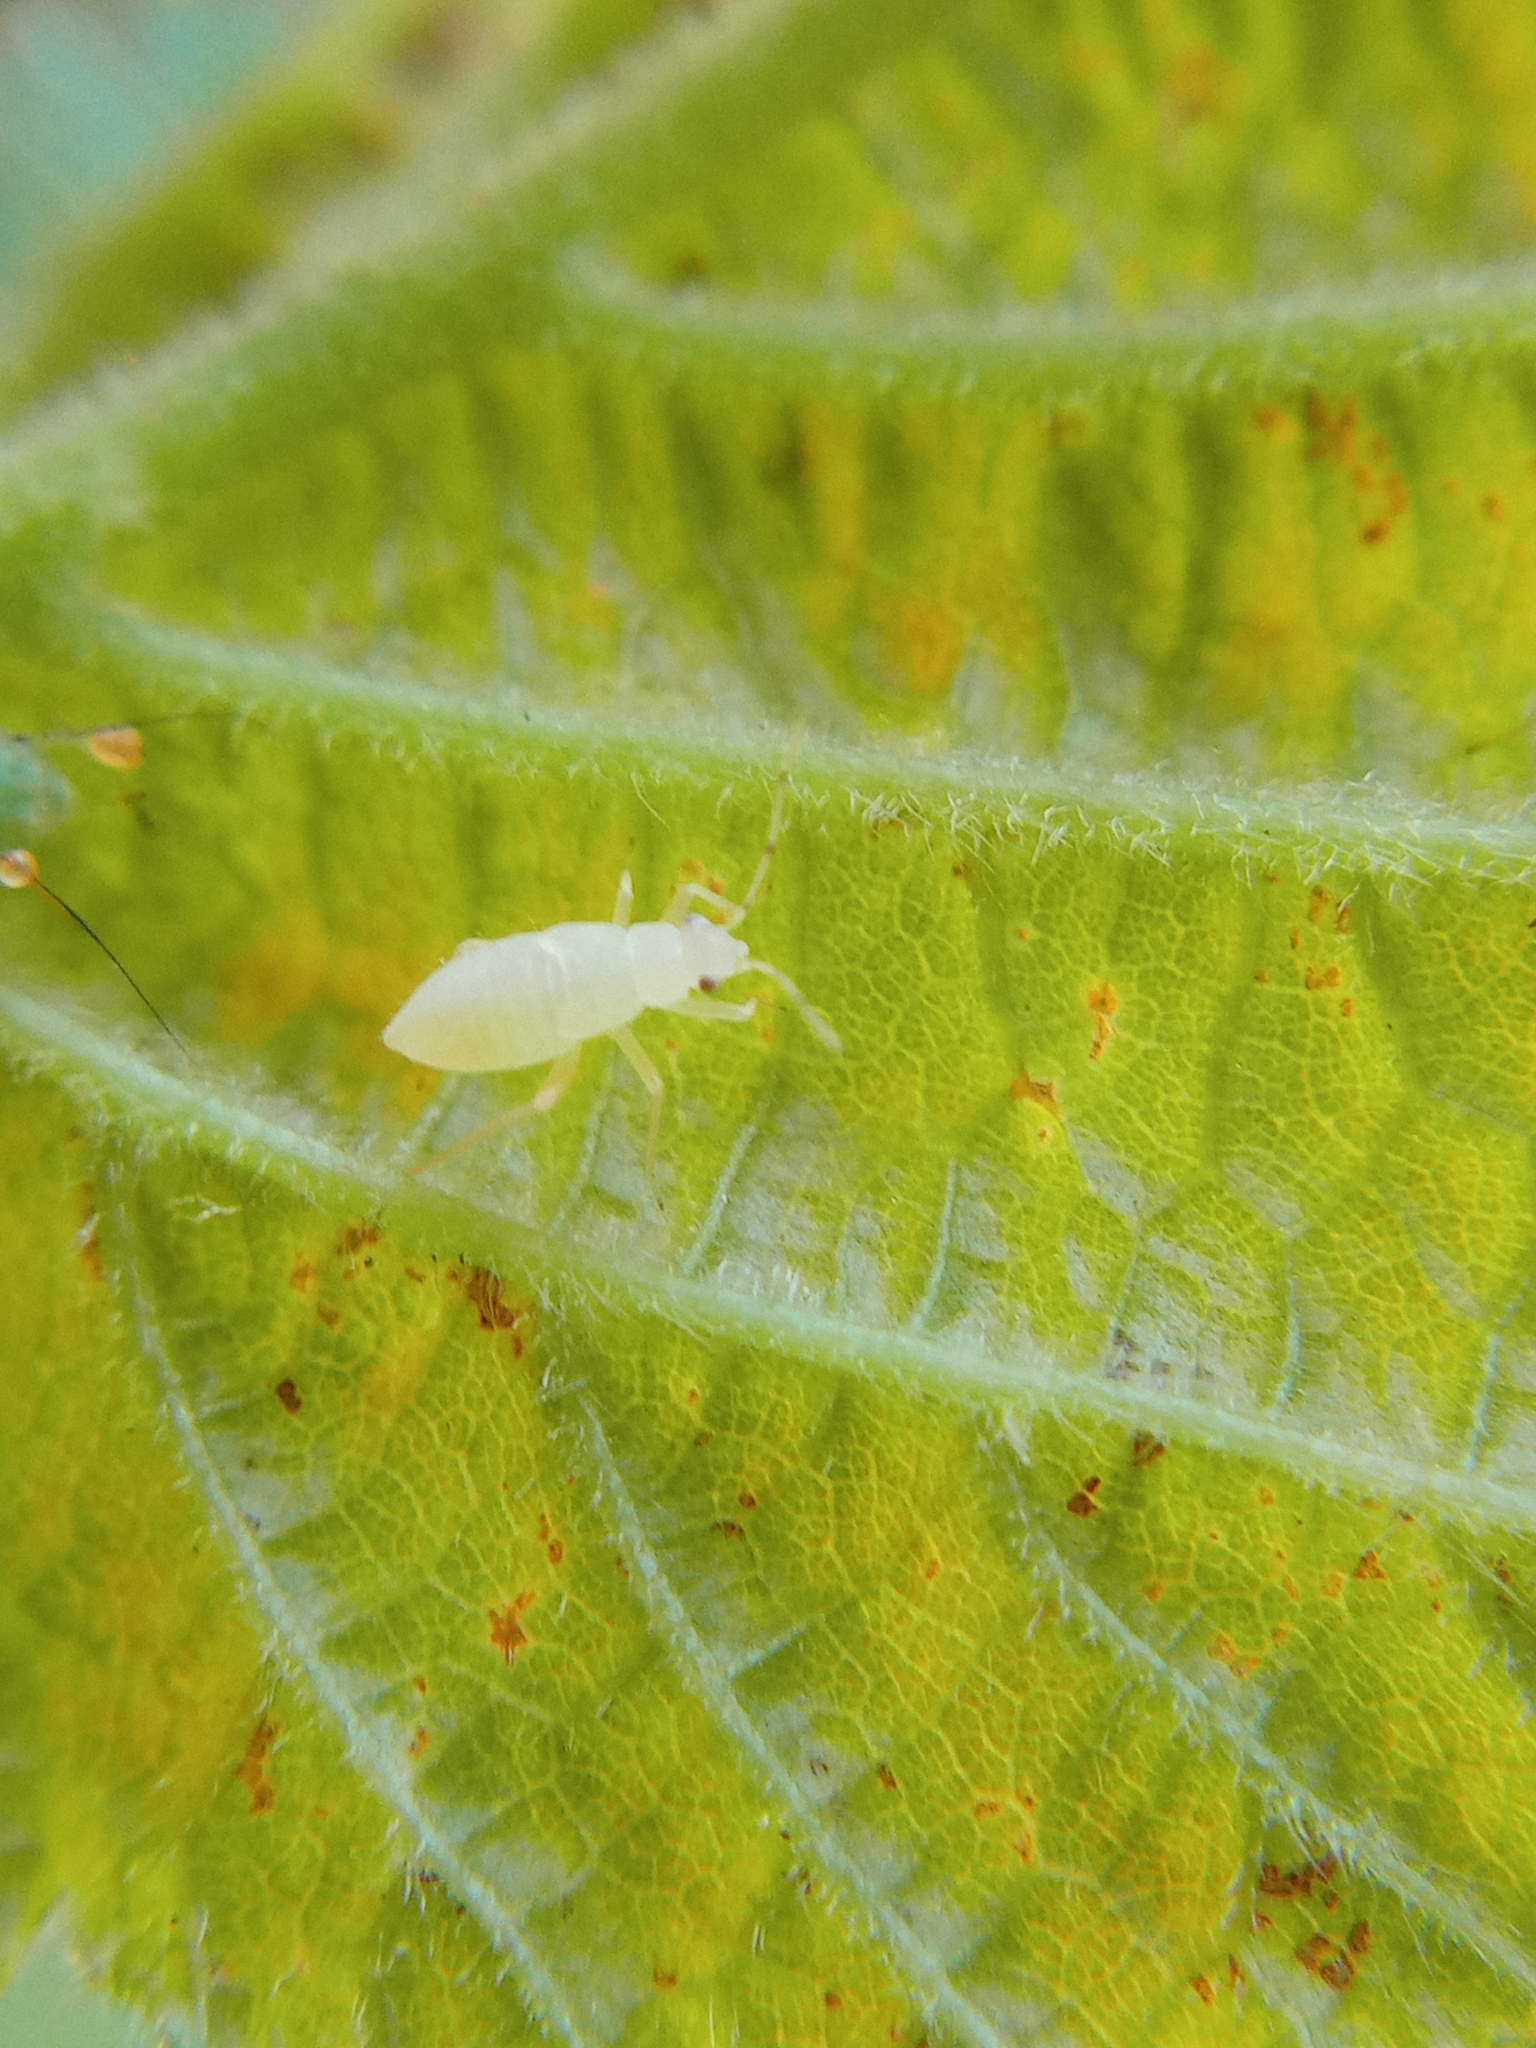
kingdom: Animalia
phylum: Arthropoda
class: Insecta
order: Hemiptera
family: Miridae
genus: Phylus
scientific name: Phylus coryli
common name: Plant bug
